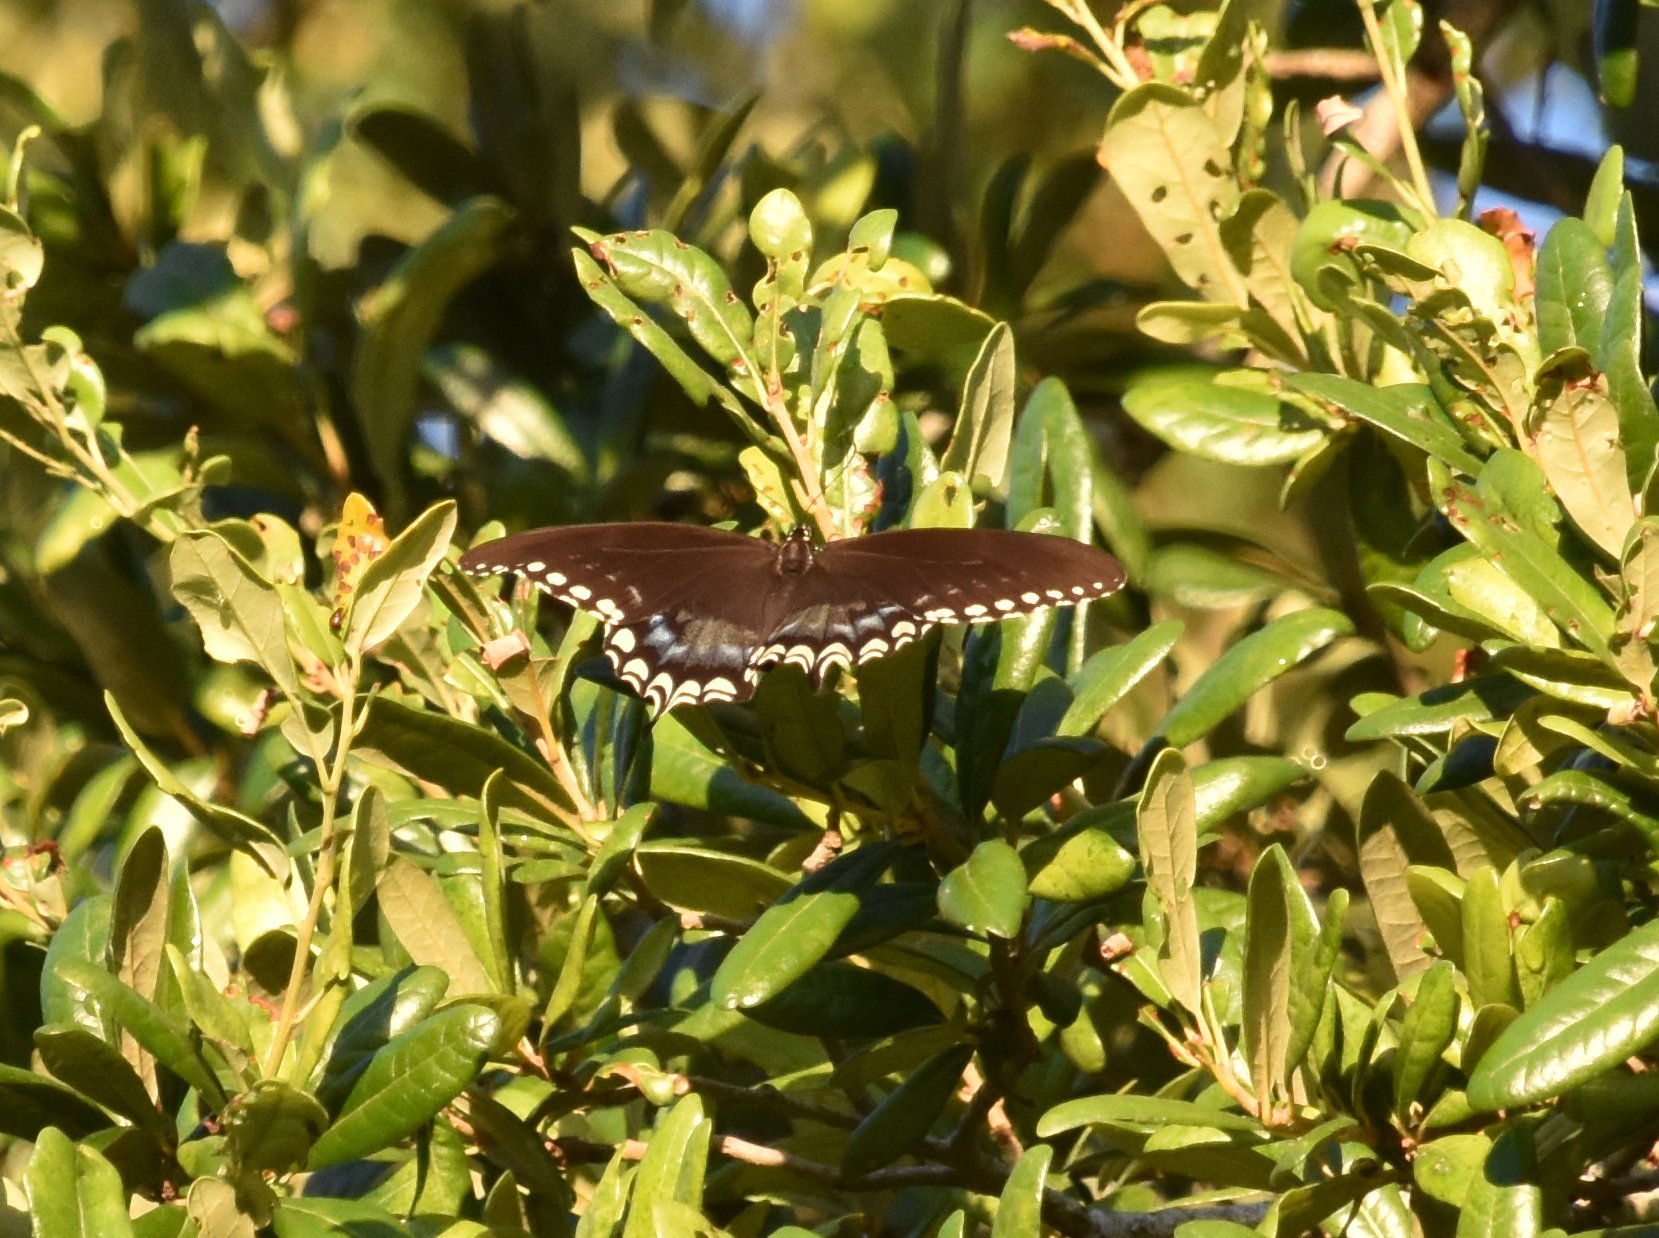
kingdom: Animalia
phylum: Arthropoda
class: Insecta
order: Lepidoptera
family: Papilionidae
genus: Papilio
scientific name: Papilio troilus
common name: Spicebush swallowtail
